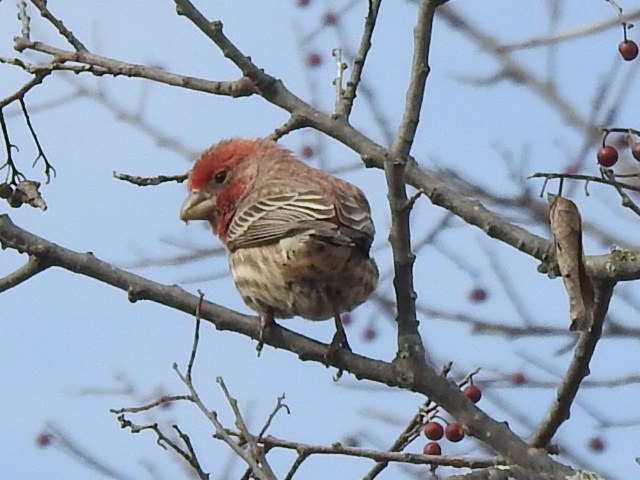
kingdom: Animalia
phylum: Chordata
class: Aves
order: Passeriformes
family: Fringillidae
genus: Haemorhous
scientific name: Haemorhous mexicanus
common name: House finch
